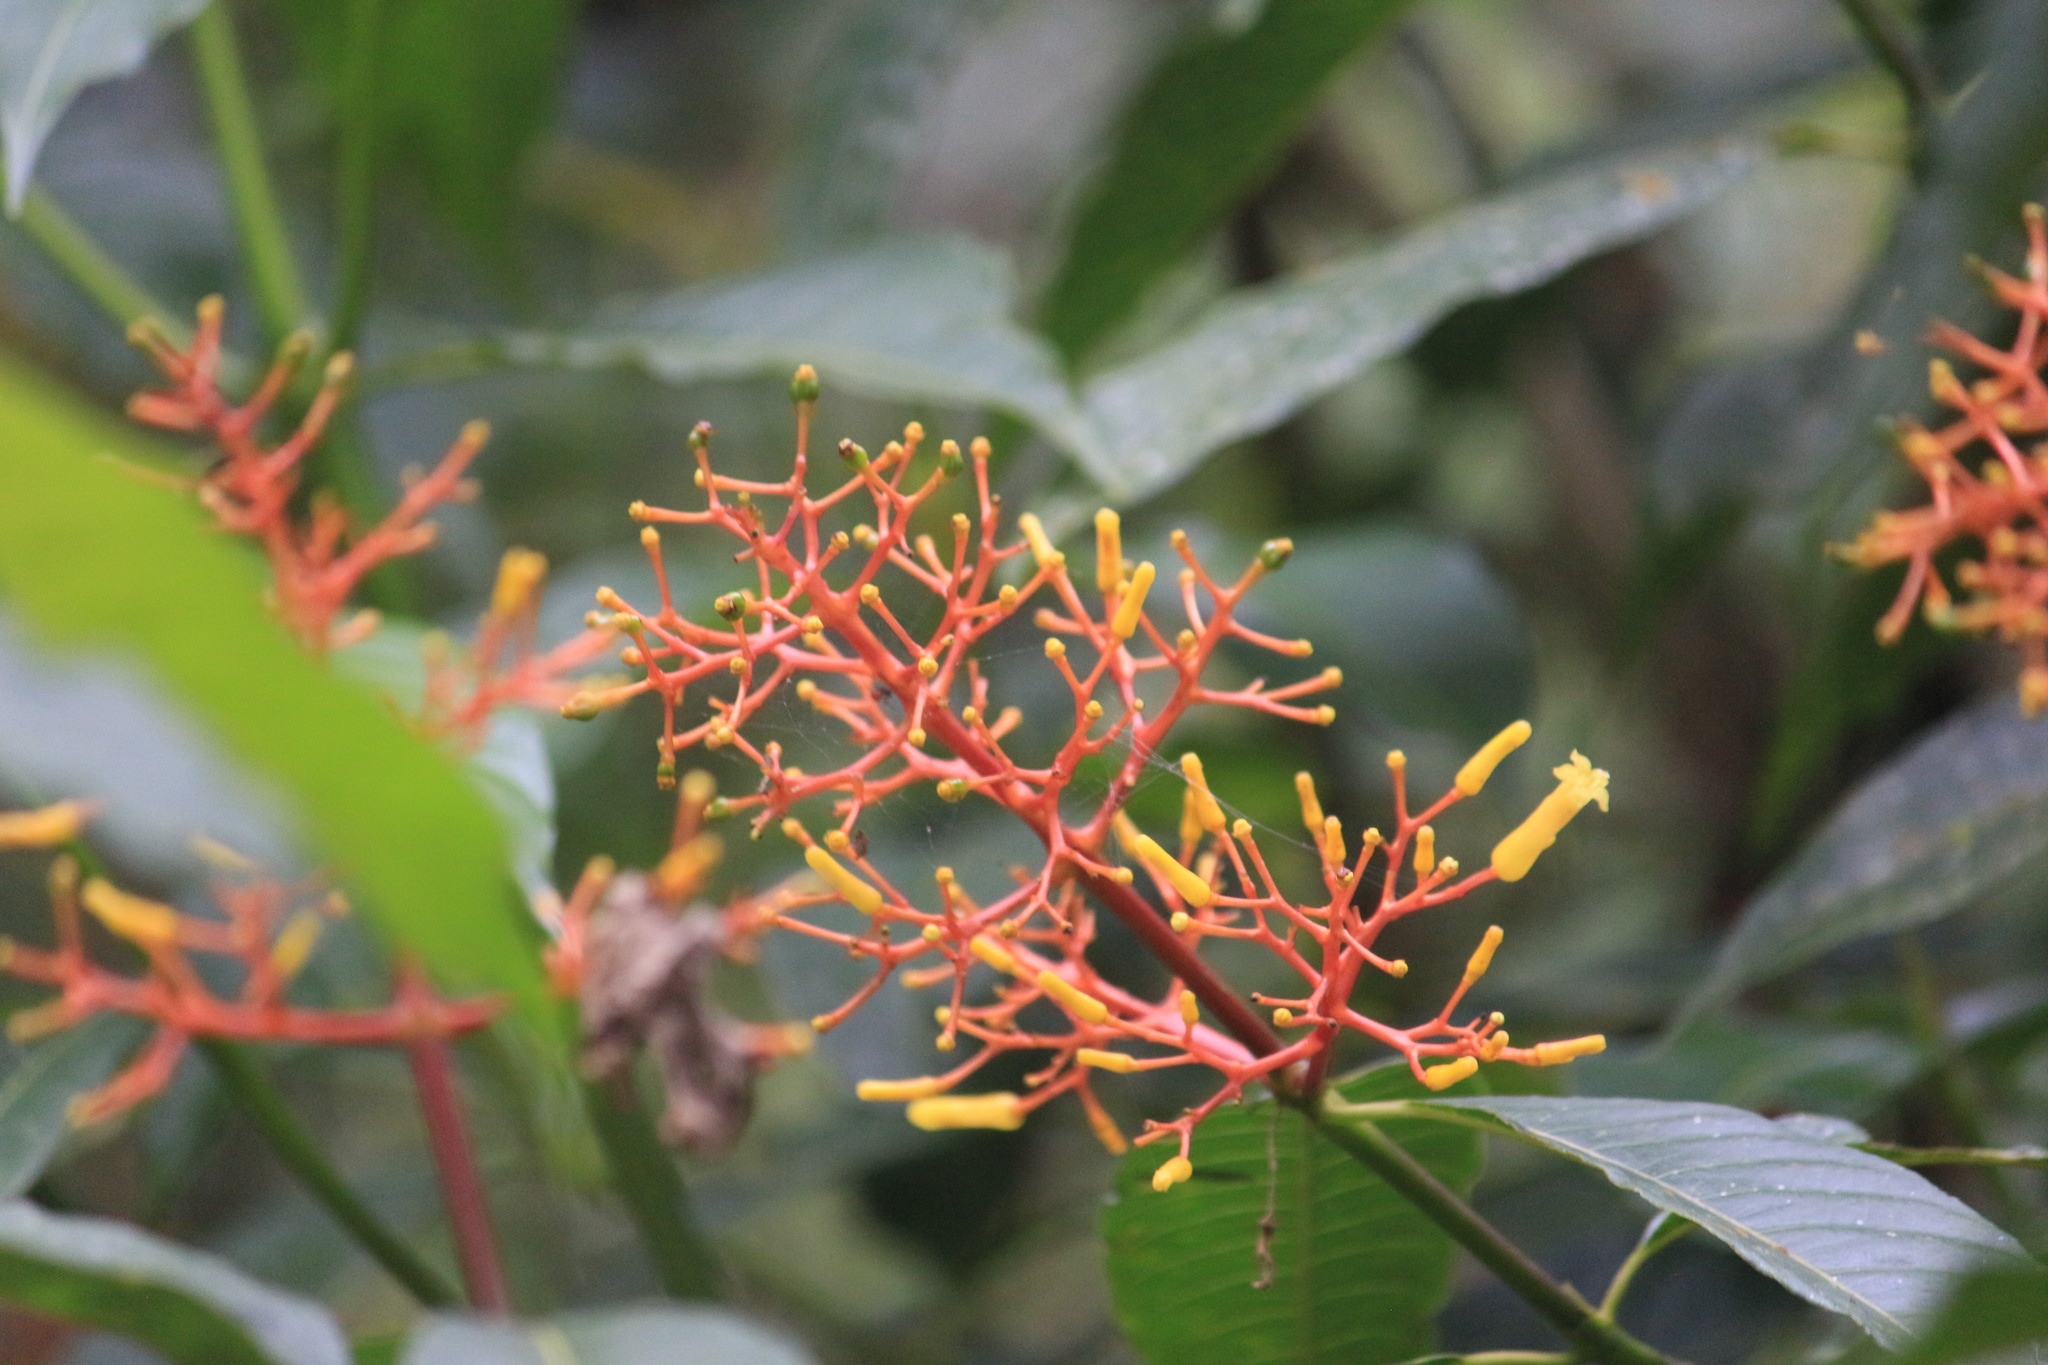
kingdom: Plantae
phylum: Tracheophyta
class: Magnoliopsida
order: Gentianales
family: Rubiaceae
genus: Palicourea
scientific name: Palicourea padifolia
